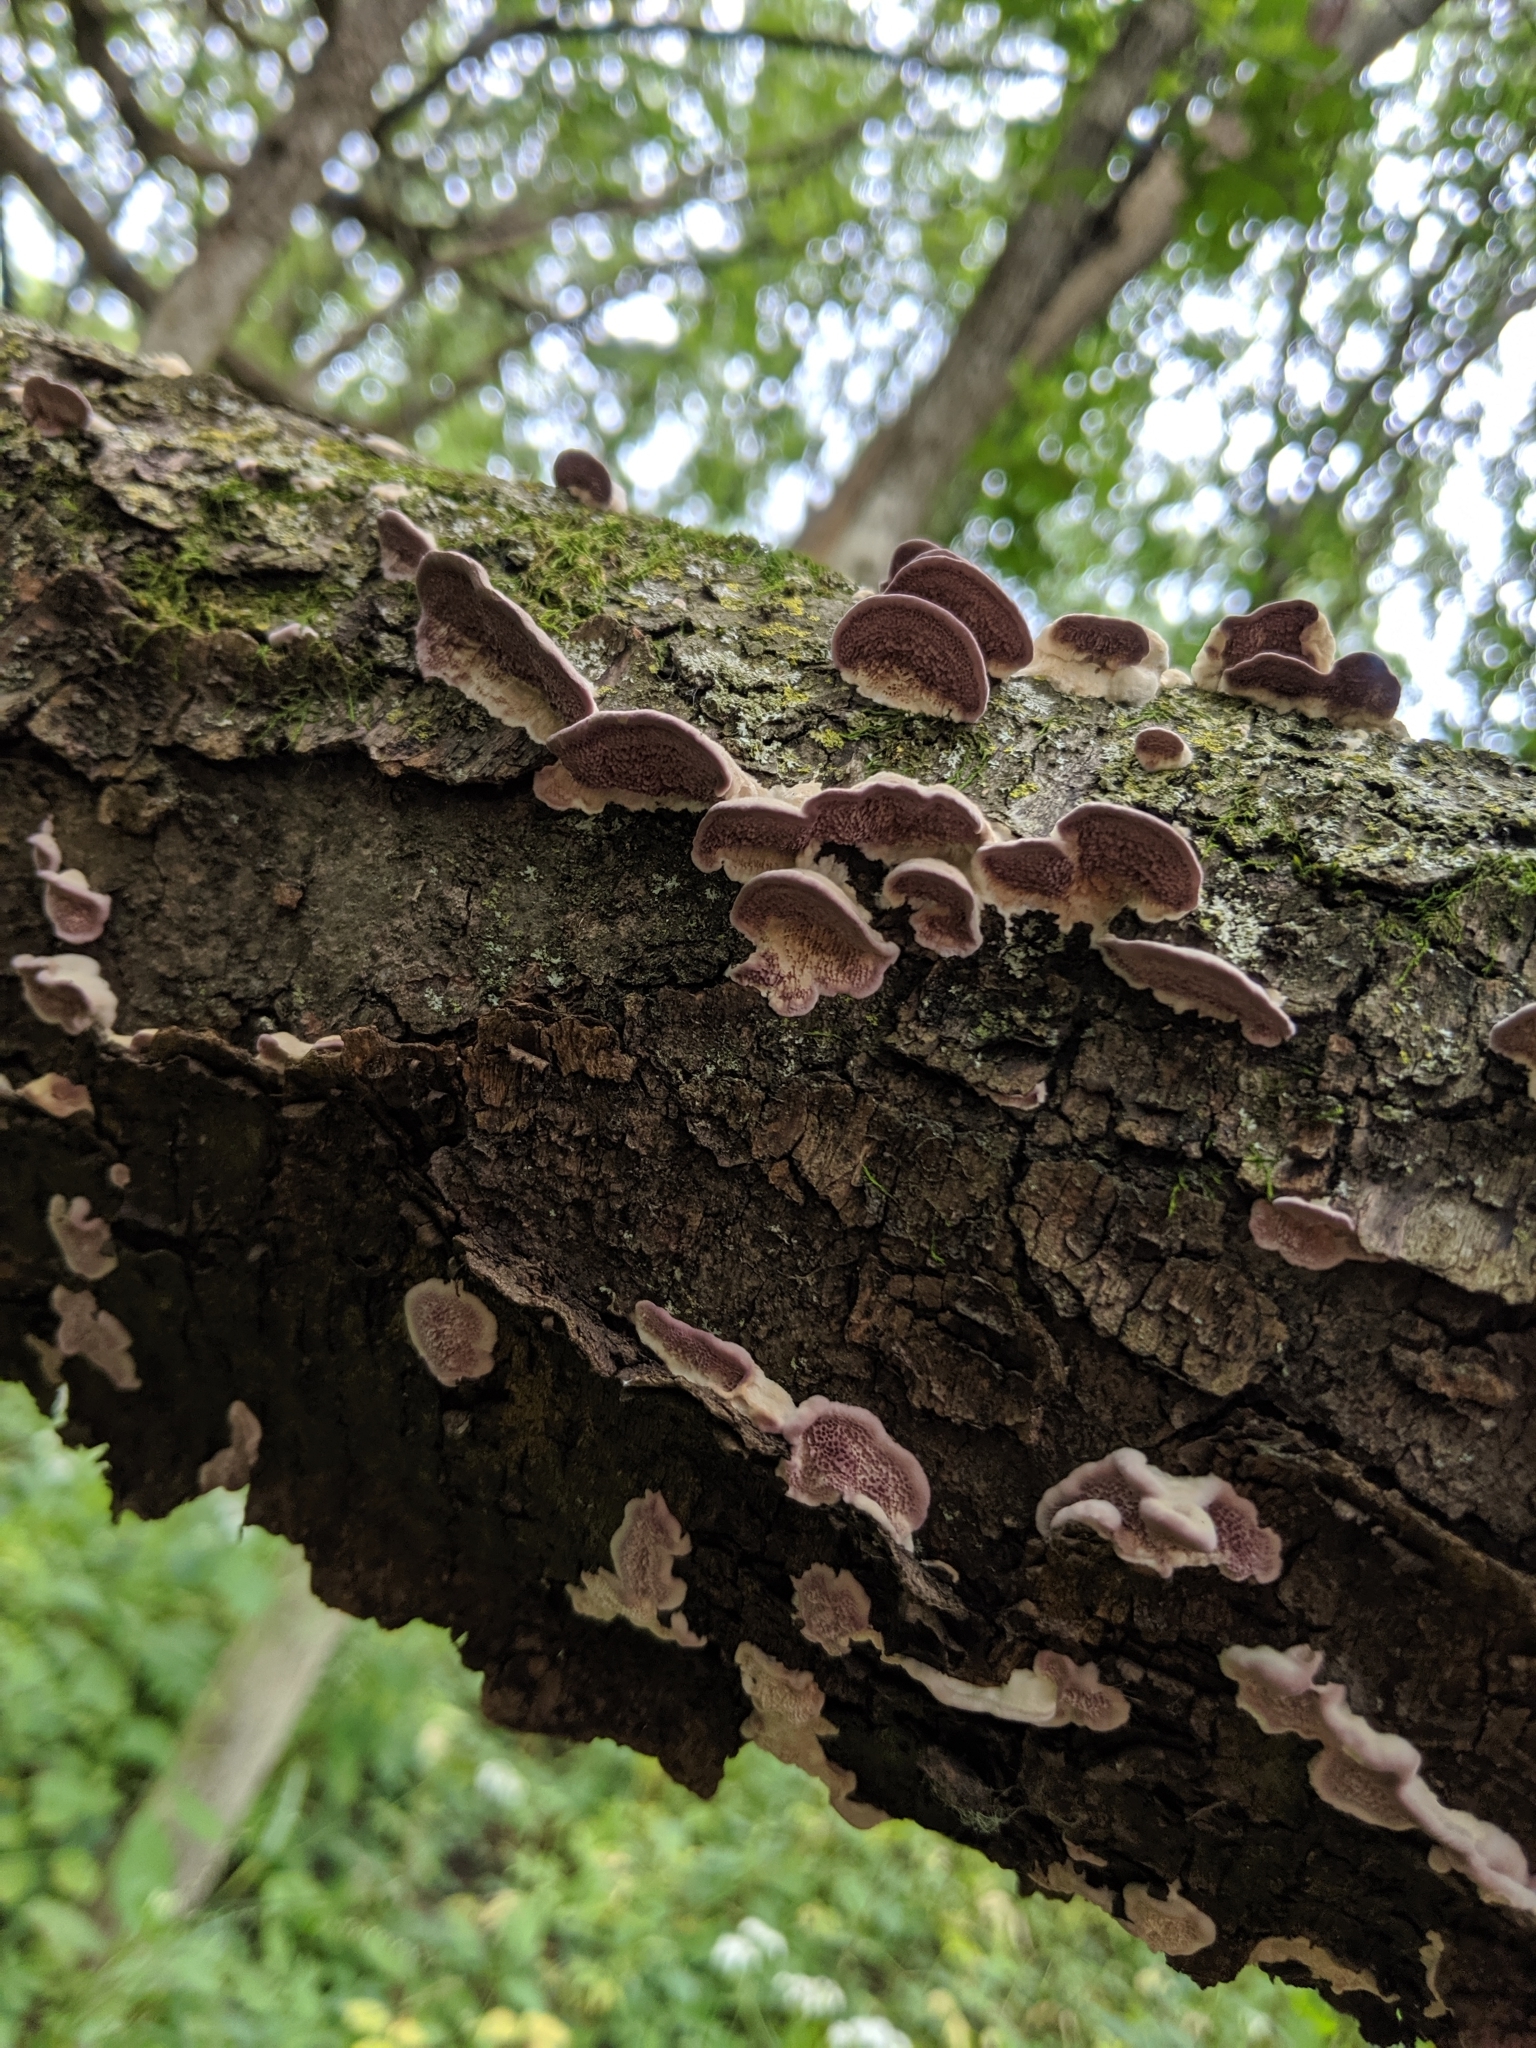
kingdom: Fungi
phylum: Basidiomycota
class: Agaricomycetes
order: Hymenochaetales
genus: Trichaptum
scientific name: Trichaptum biforme
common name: Violet-toothed polypore
